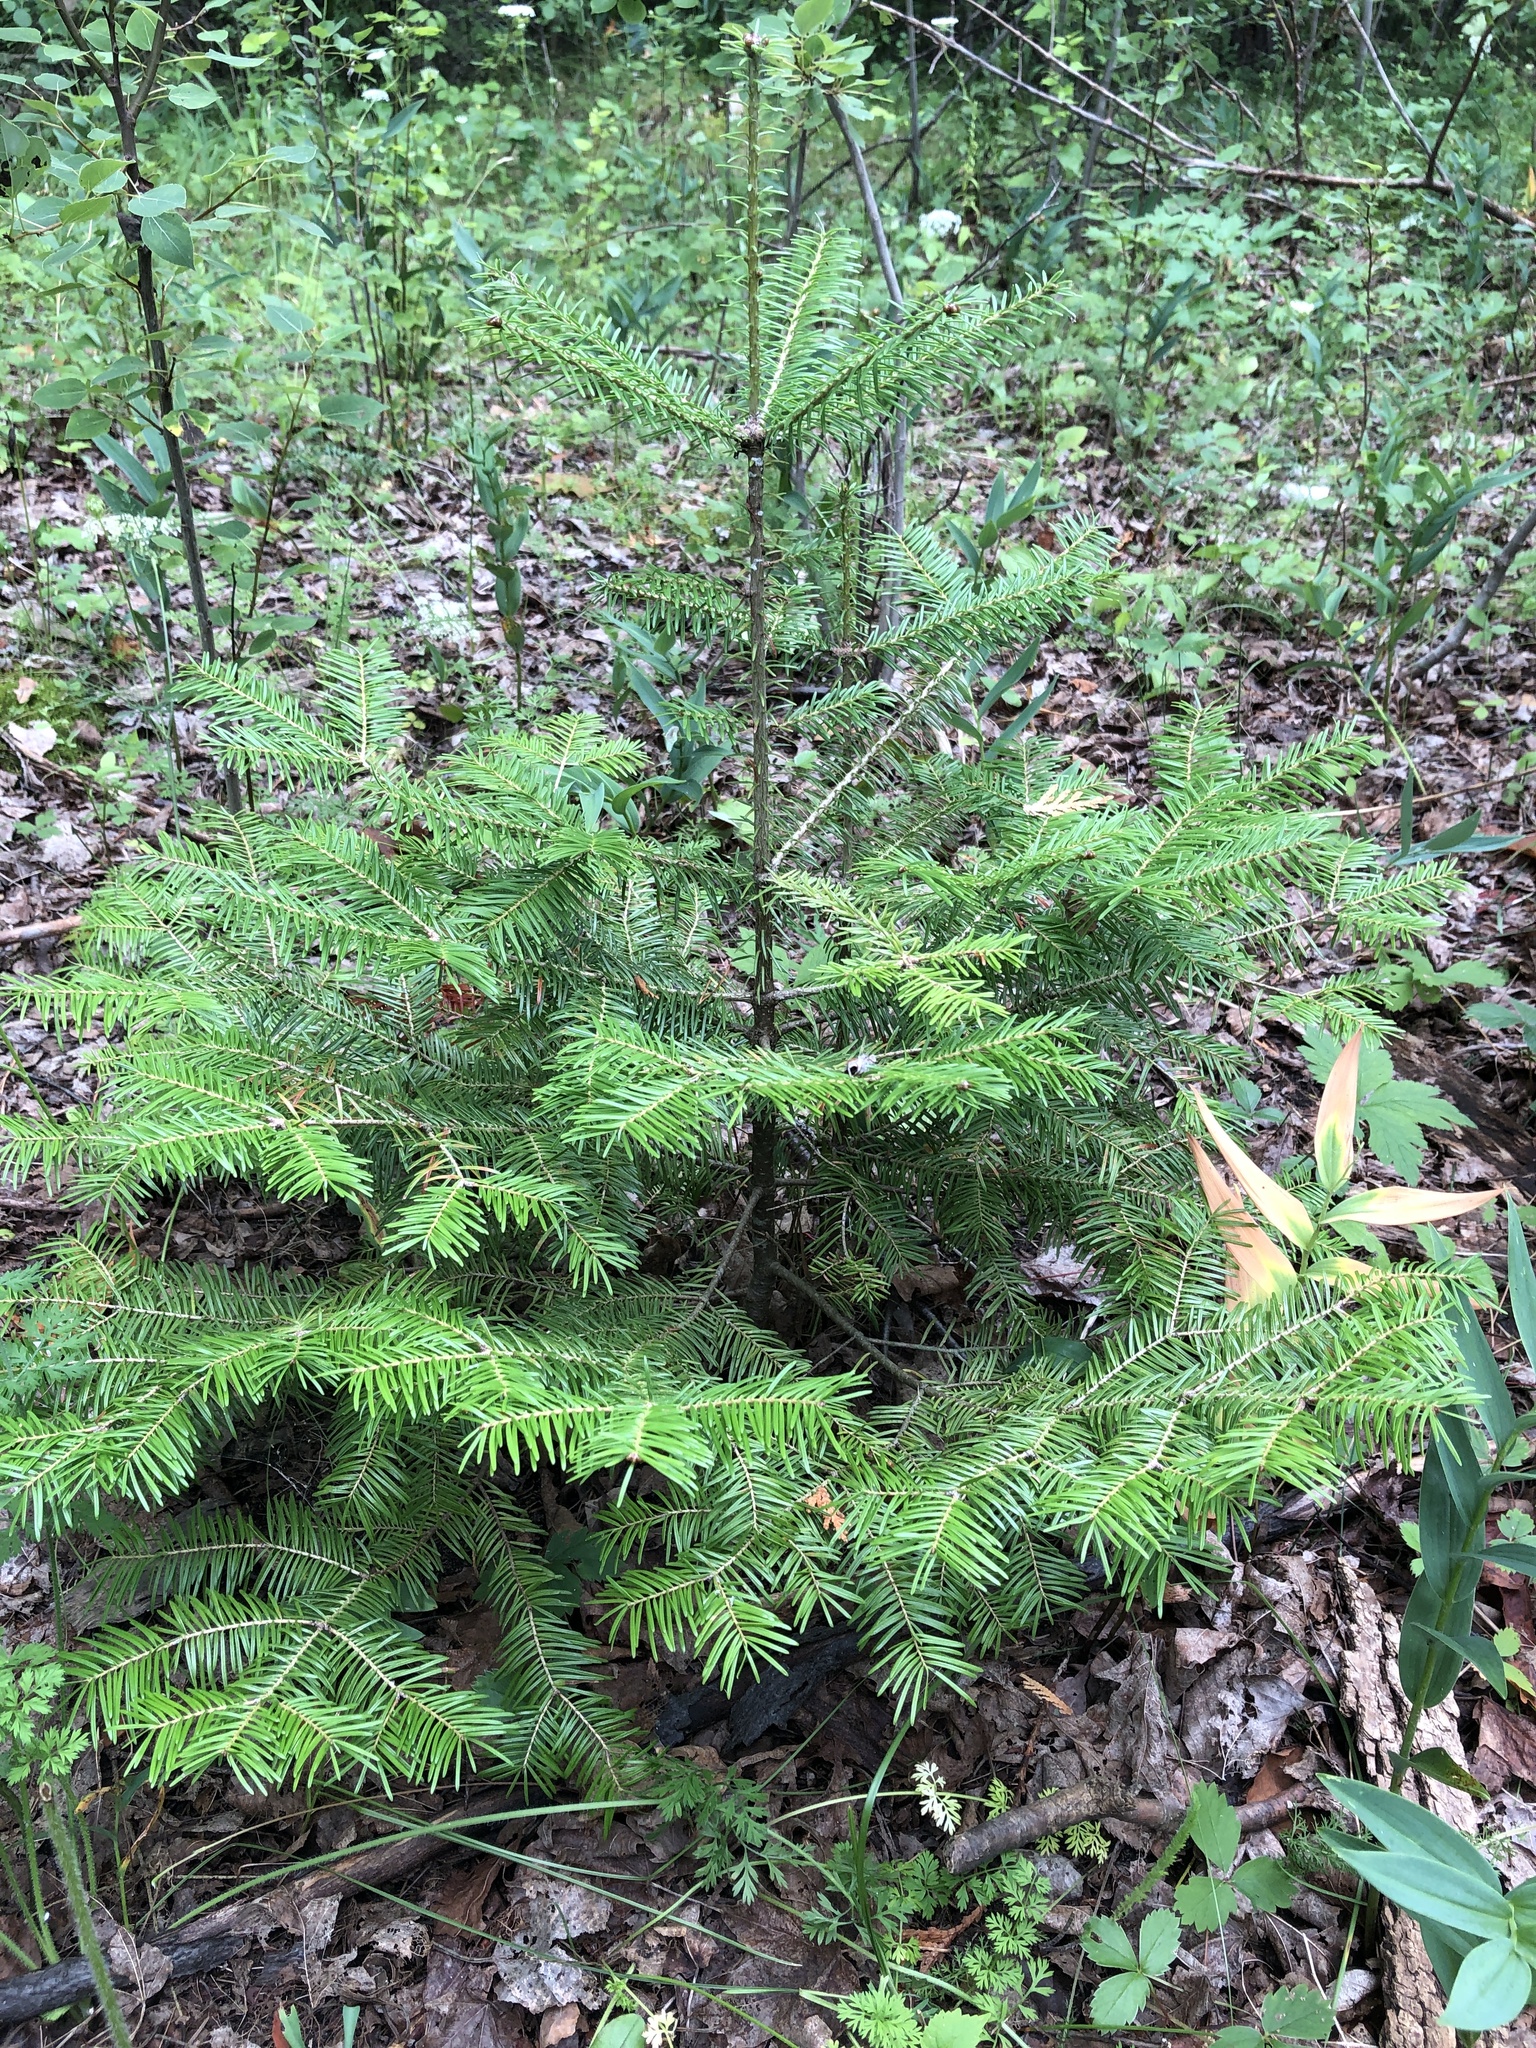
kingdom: Plantae
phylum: Tracheophyta
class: Pinopsida
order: Pinales
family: Pinaceae
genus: Abies
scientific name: Abies balsamea
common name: Balsam fir
